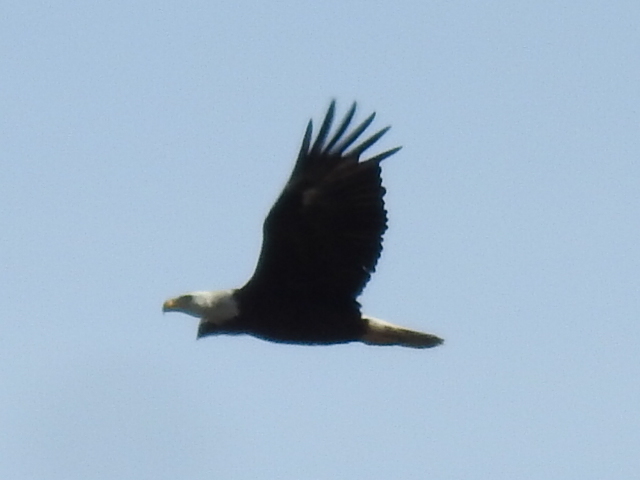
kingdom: Animalia
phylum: Chordata
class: Aves
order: Accipitriformes
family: Accipitridae
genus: Haliaeetus
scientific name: Haliaeetus leucocephalus
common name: Bald eagle
